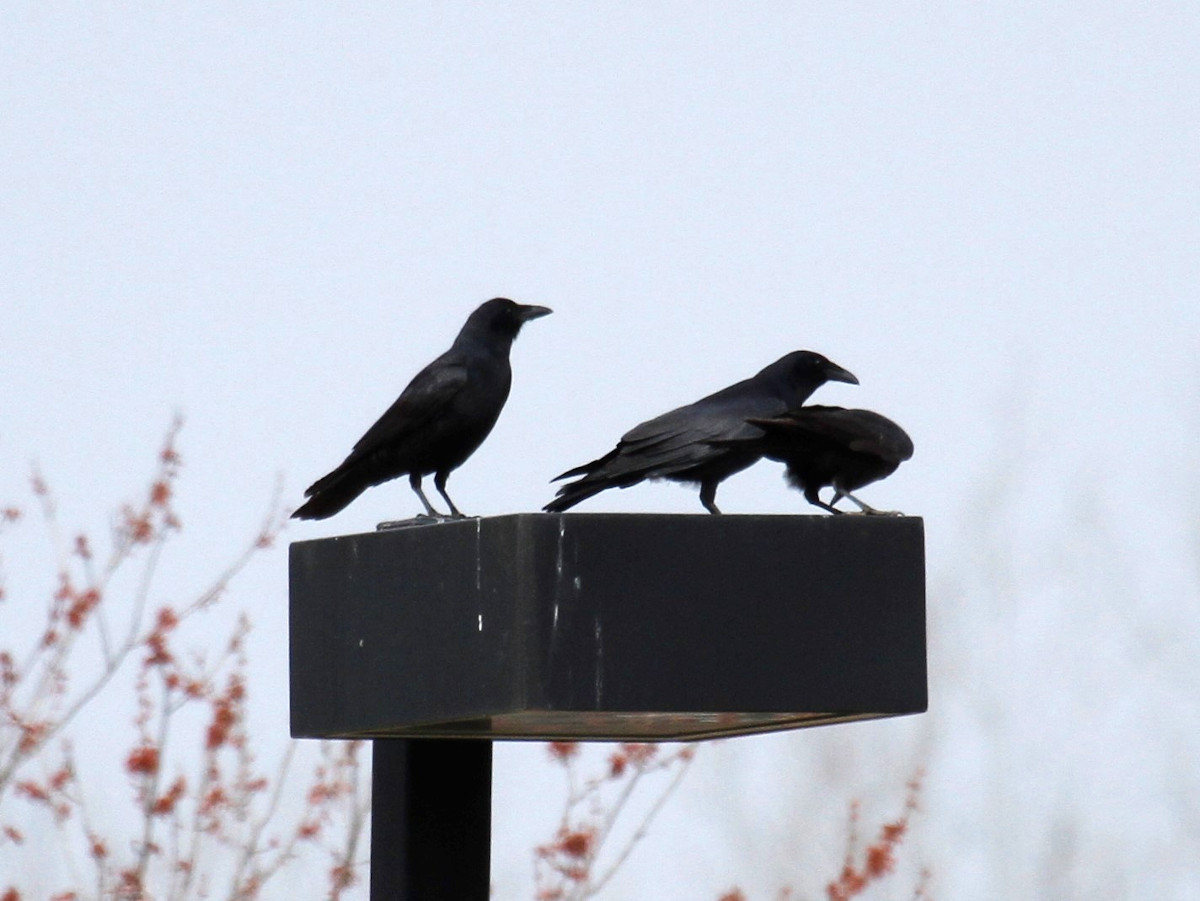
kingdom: Animalia
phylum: Chordata
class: Aves
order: Passeriformes
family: Corvidae
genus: Corvus
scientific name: Corvus brachyrhynchos
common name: American crow
